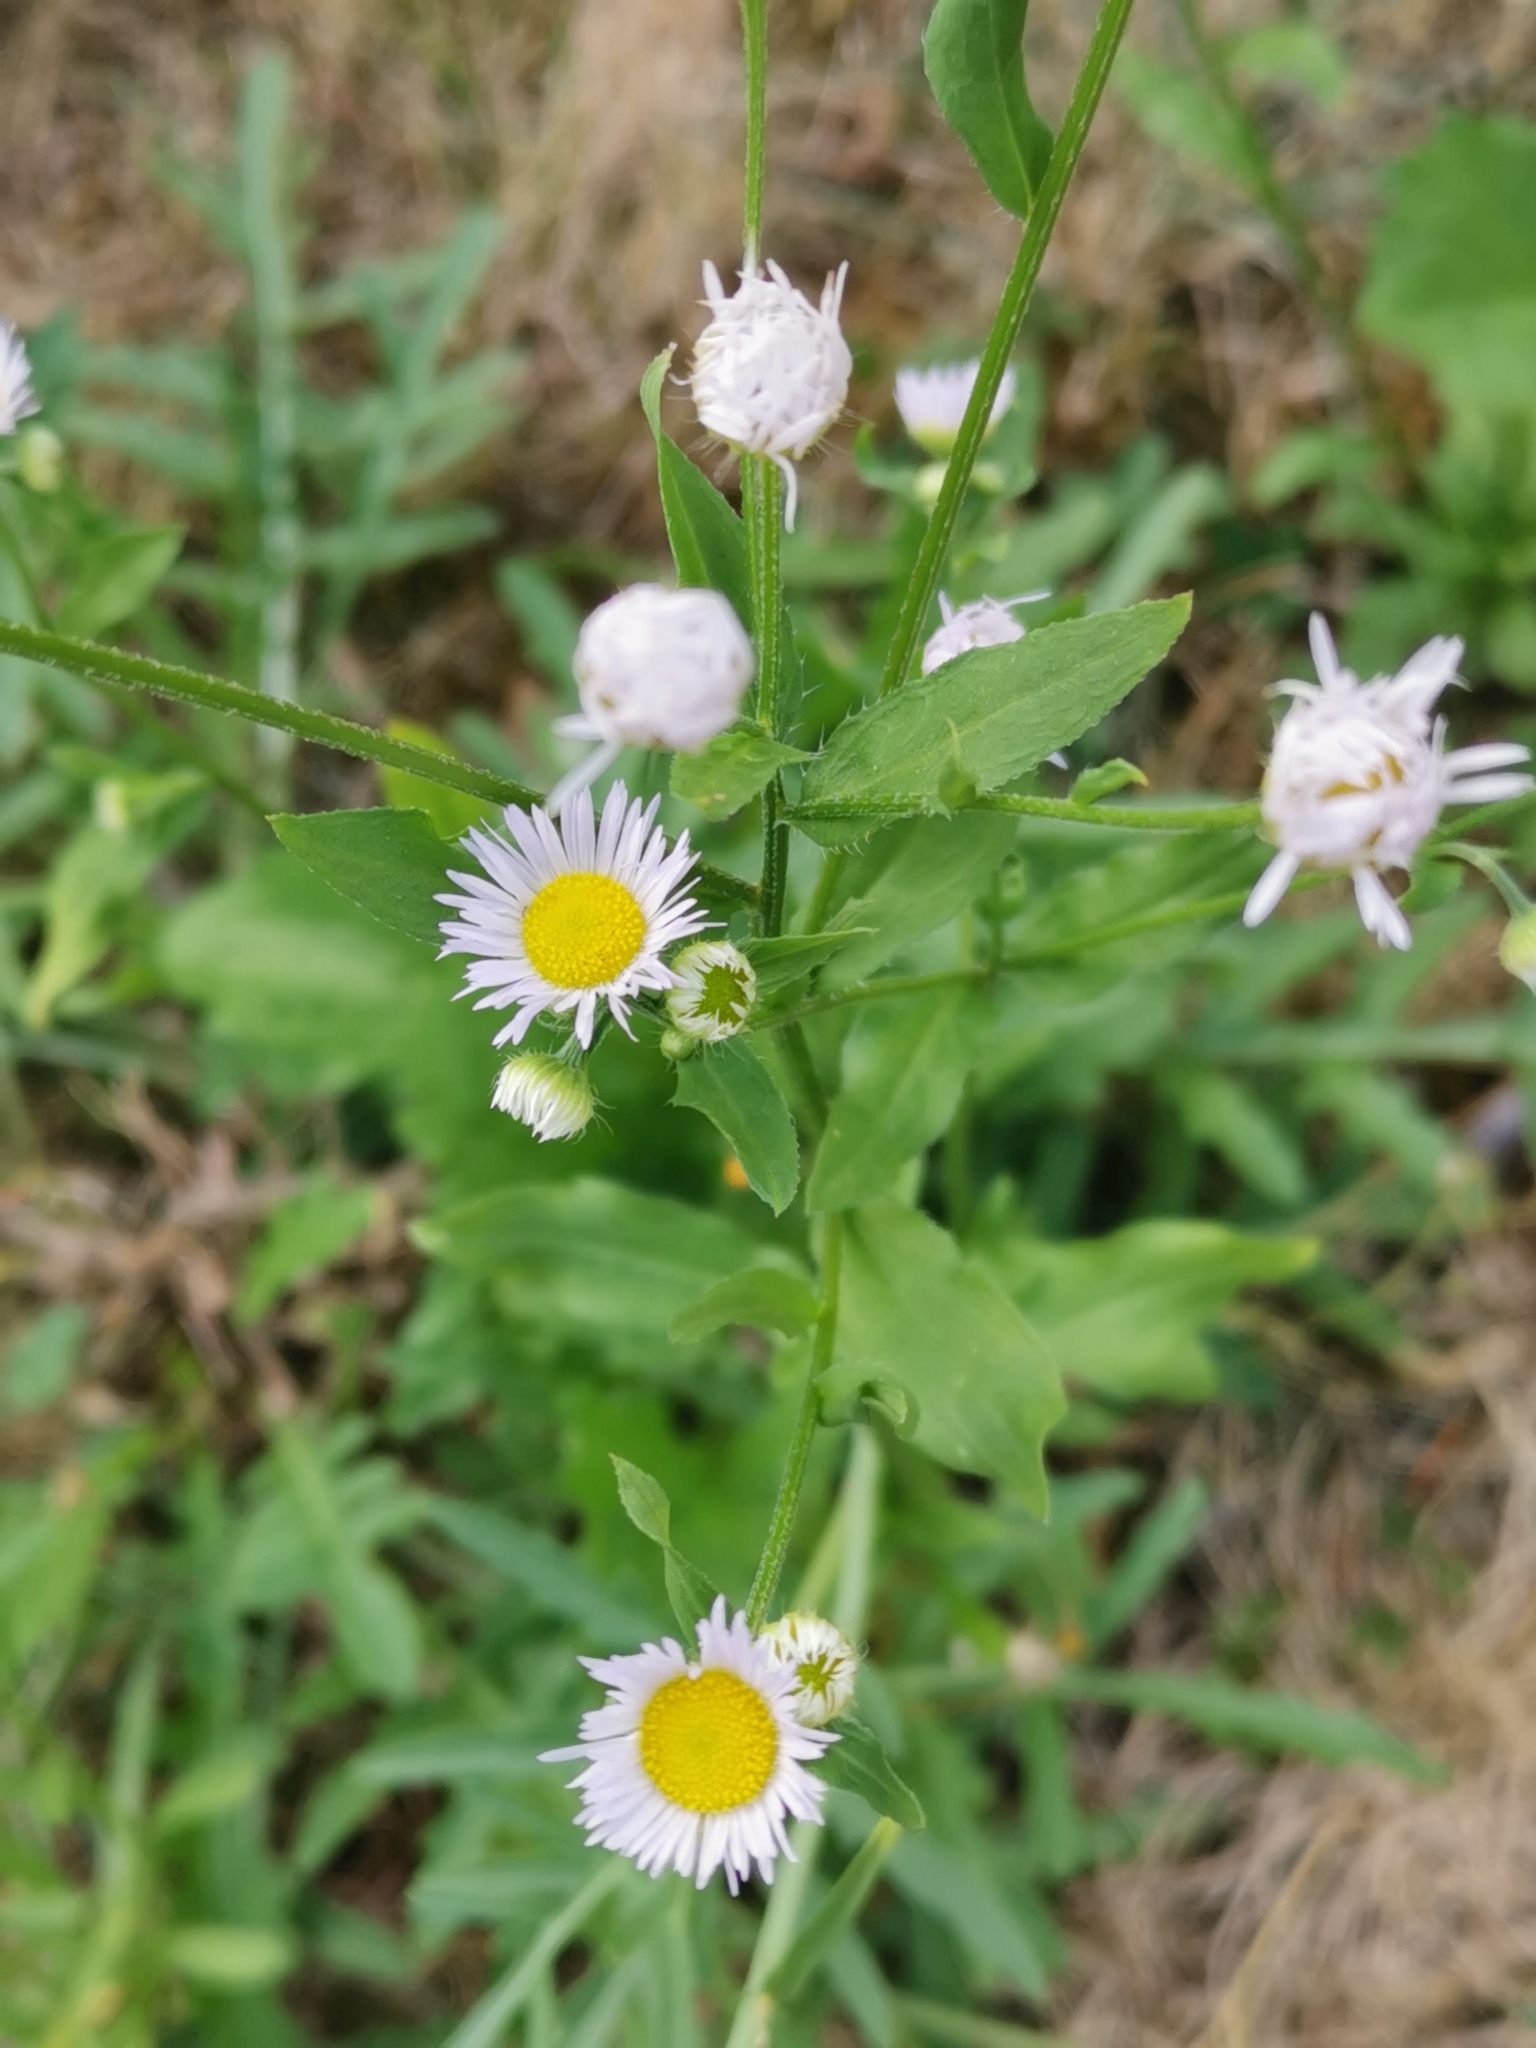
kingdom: Plantae
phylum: Tracheophyta
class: Magnoliopsida
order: Asterales
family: Asteraceae
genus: Erigeron
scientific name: Erigeron annuus
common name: Tall fleabane
